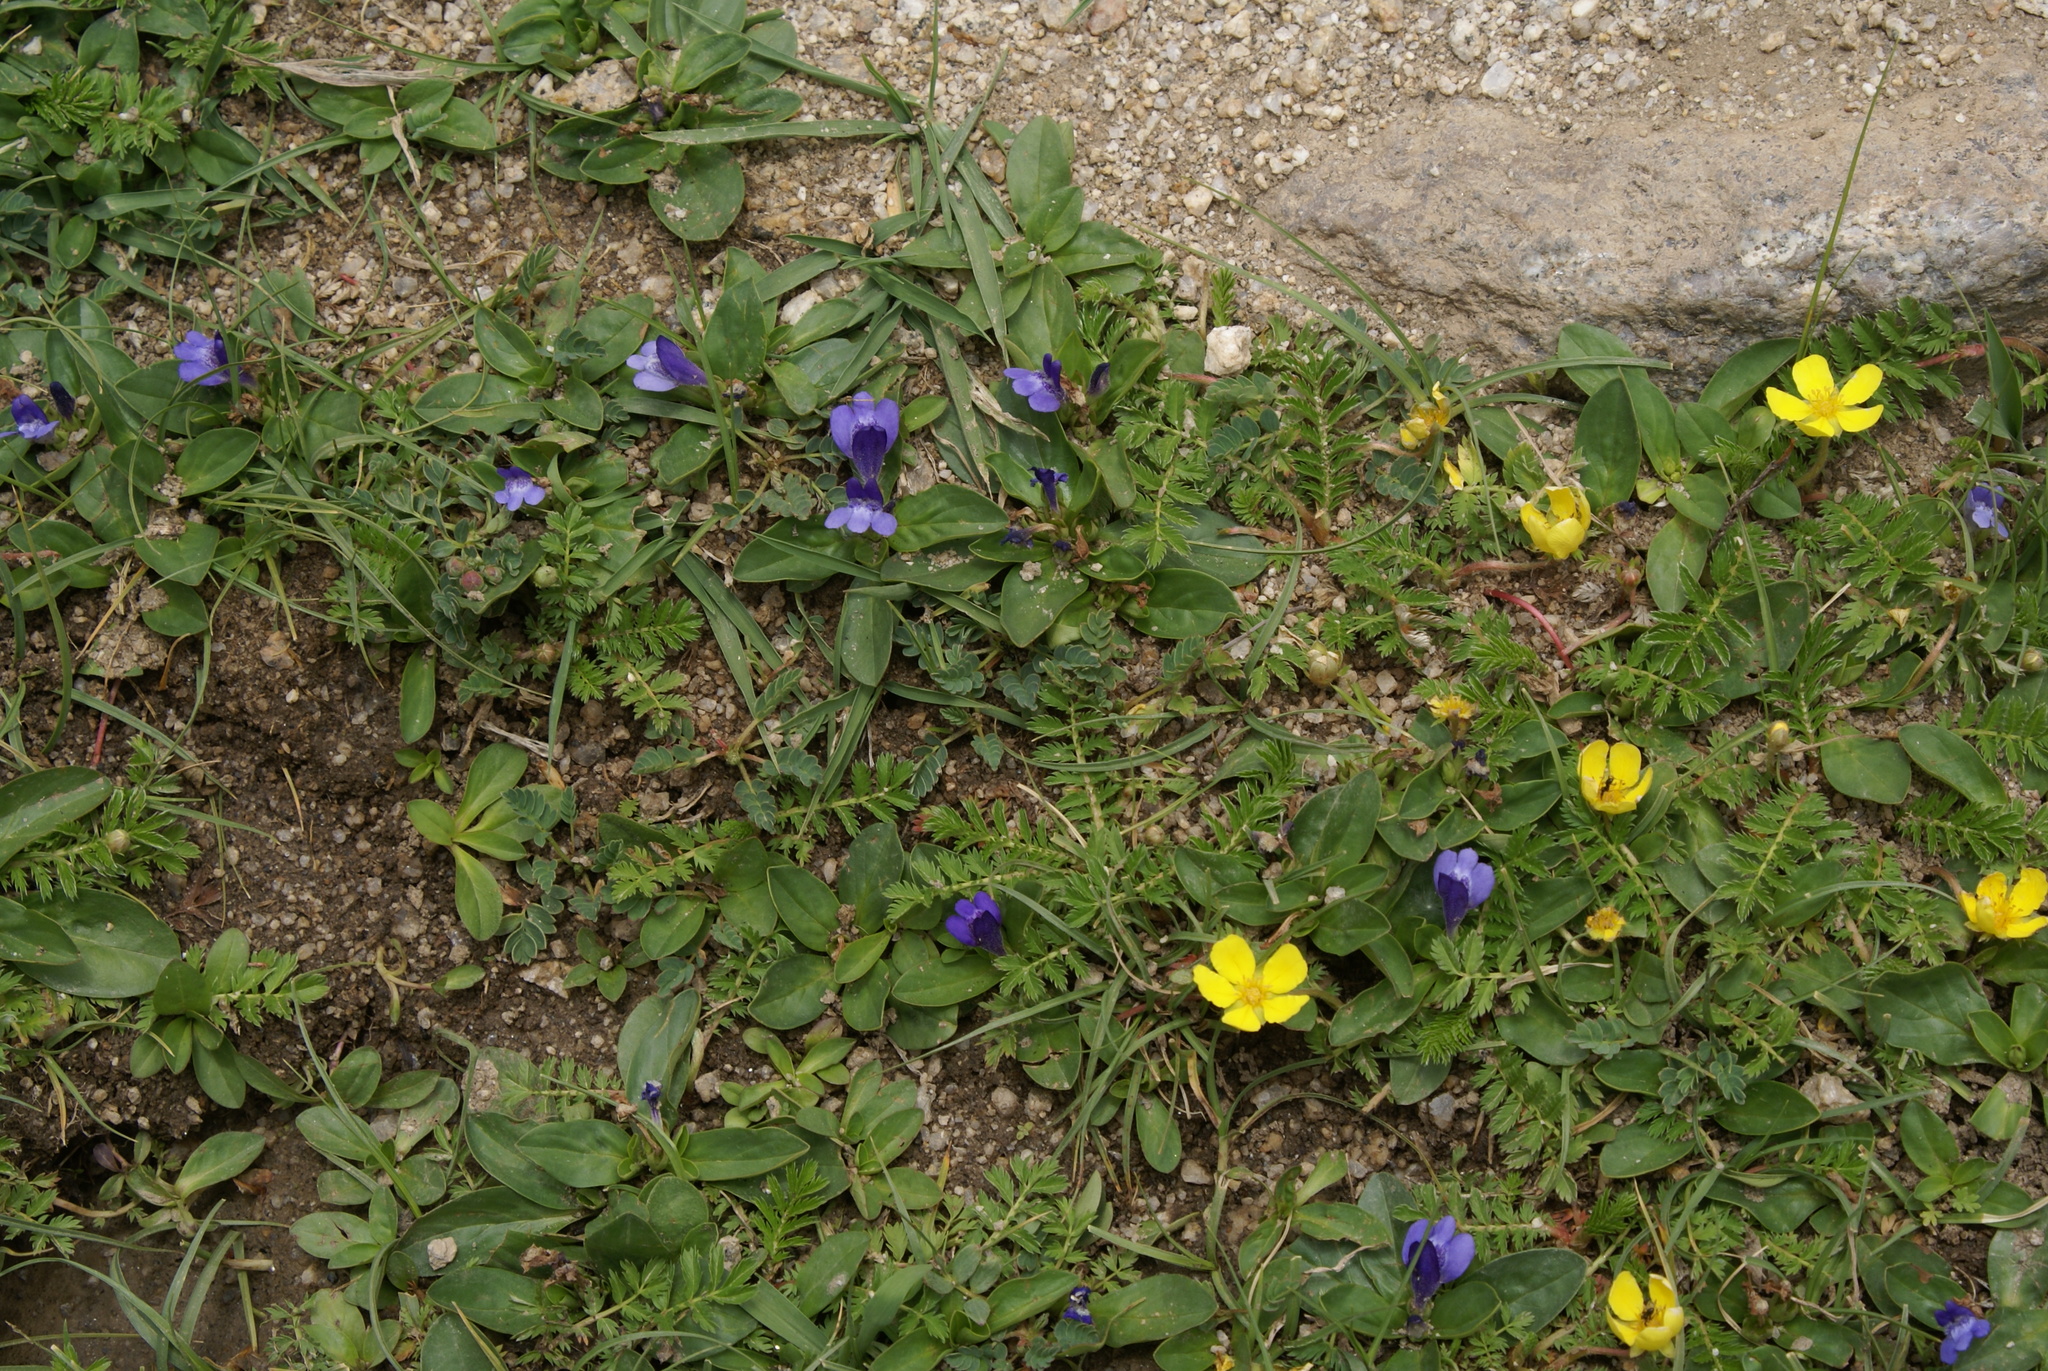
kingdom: Plantae
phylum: Tracheophyta
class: Magnoliopsida
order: Lamiales
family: Mazaceae
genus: Lancea
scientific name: Lancea tibetica
